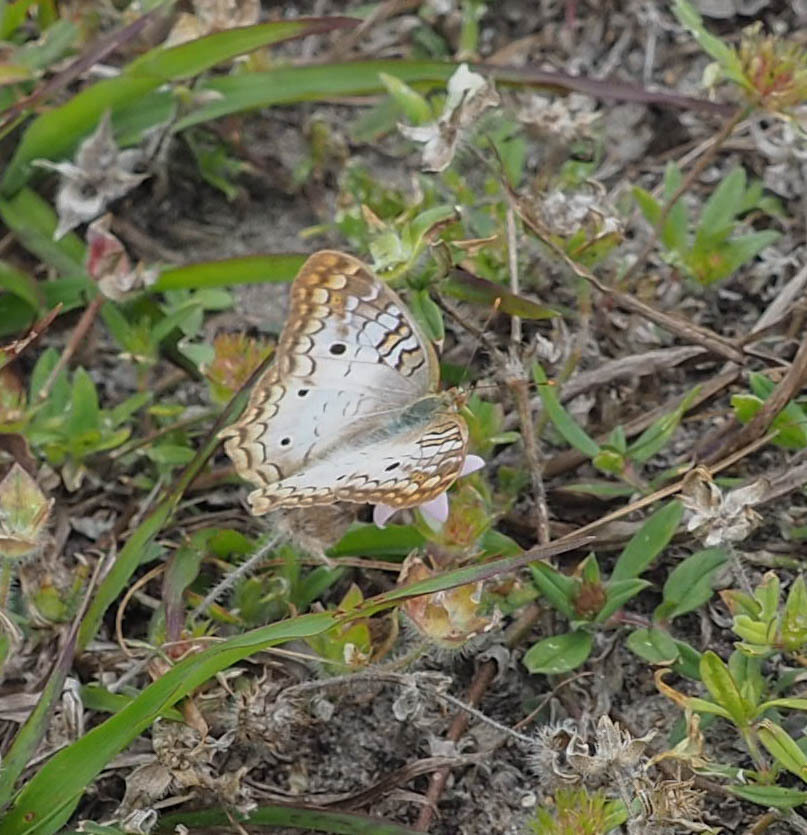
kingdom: Animalia
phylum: Arthropoda
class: Insecta
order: Lepidoptera
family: Nymphalidae
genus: Anartia
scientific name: Anartia jatrophae
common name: White peacock
